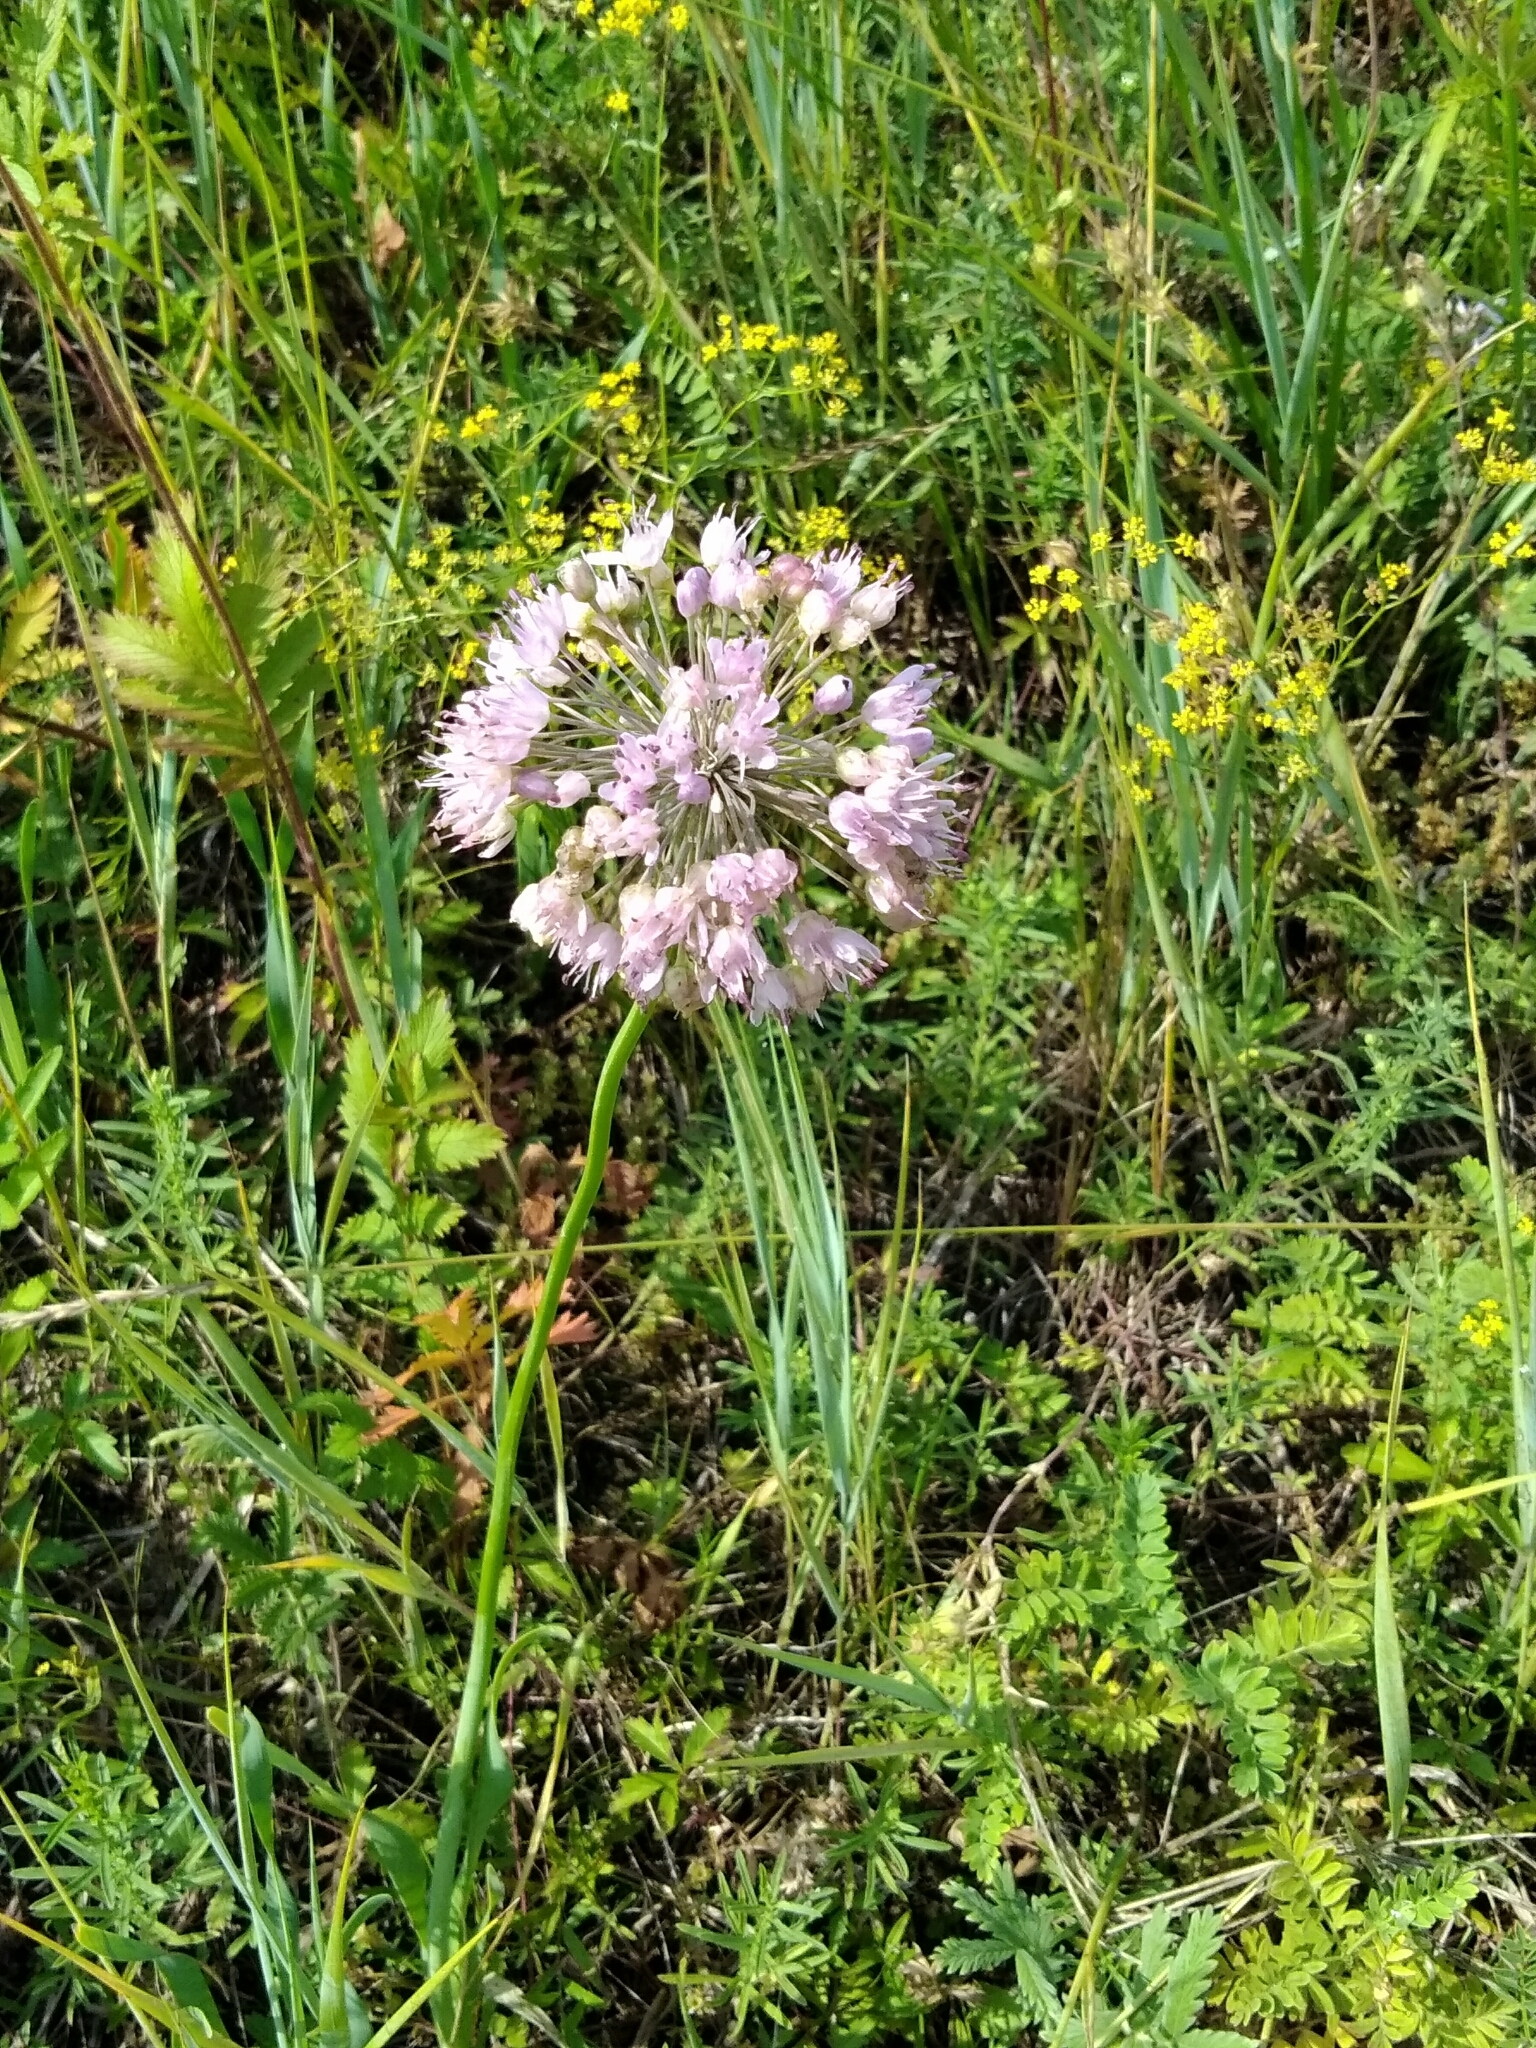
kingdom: Plantae
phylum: Tracheophyta
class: Liliopsida
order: Asparagales
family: Amaryllidaceae
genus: Allium
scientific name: Allium burjaticum
